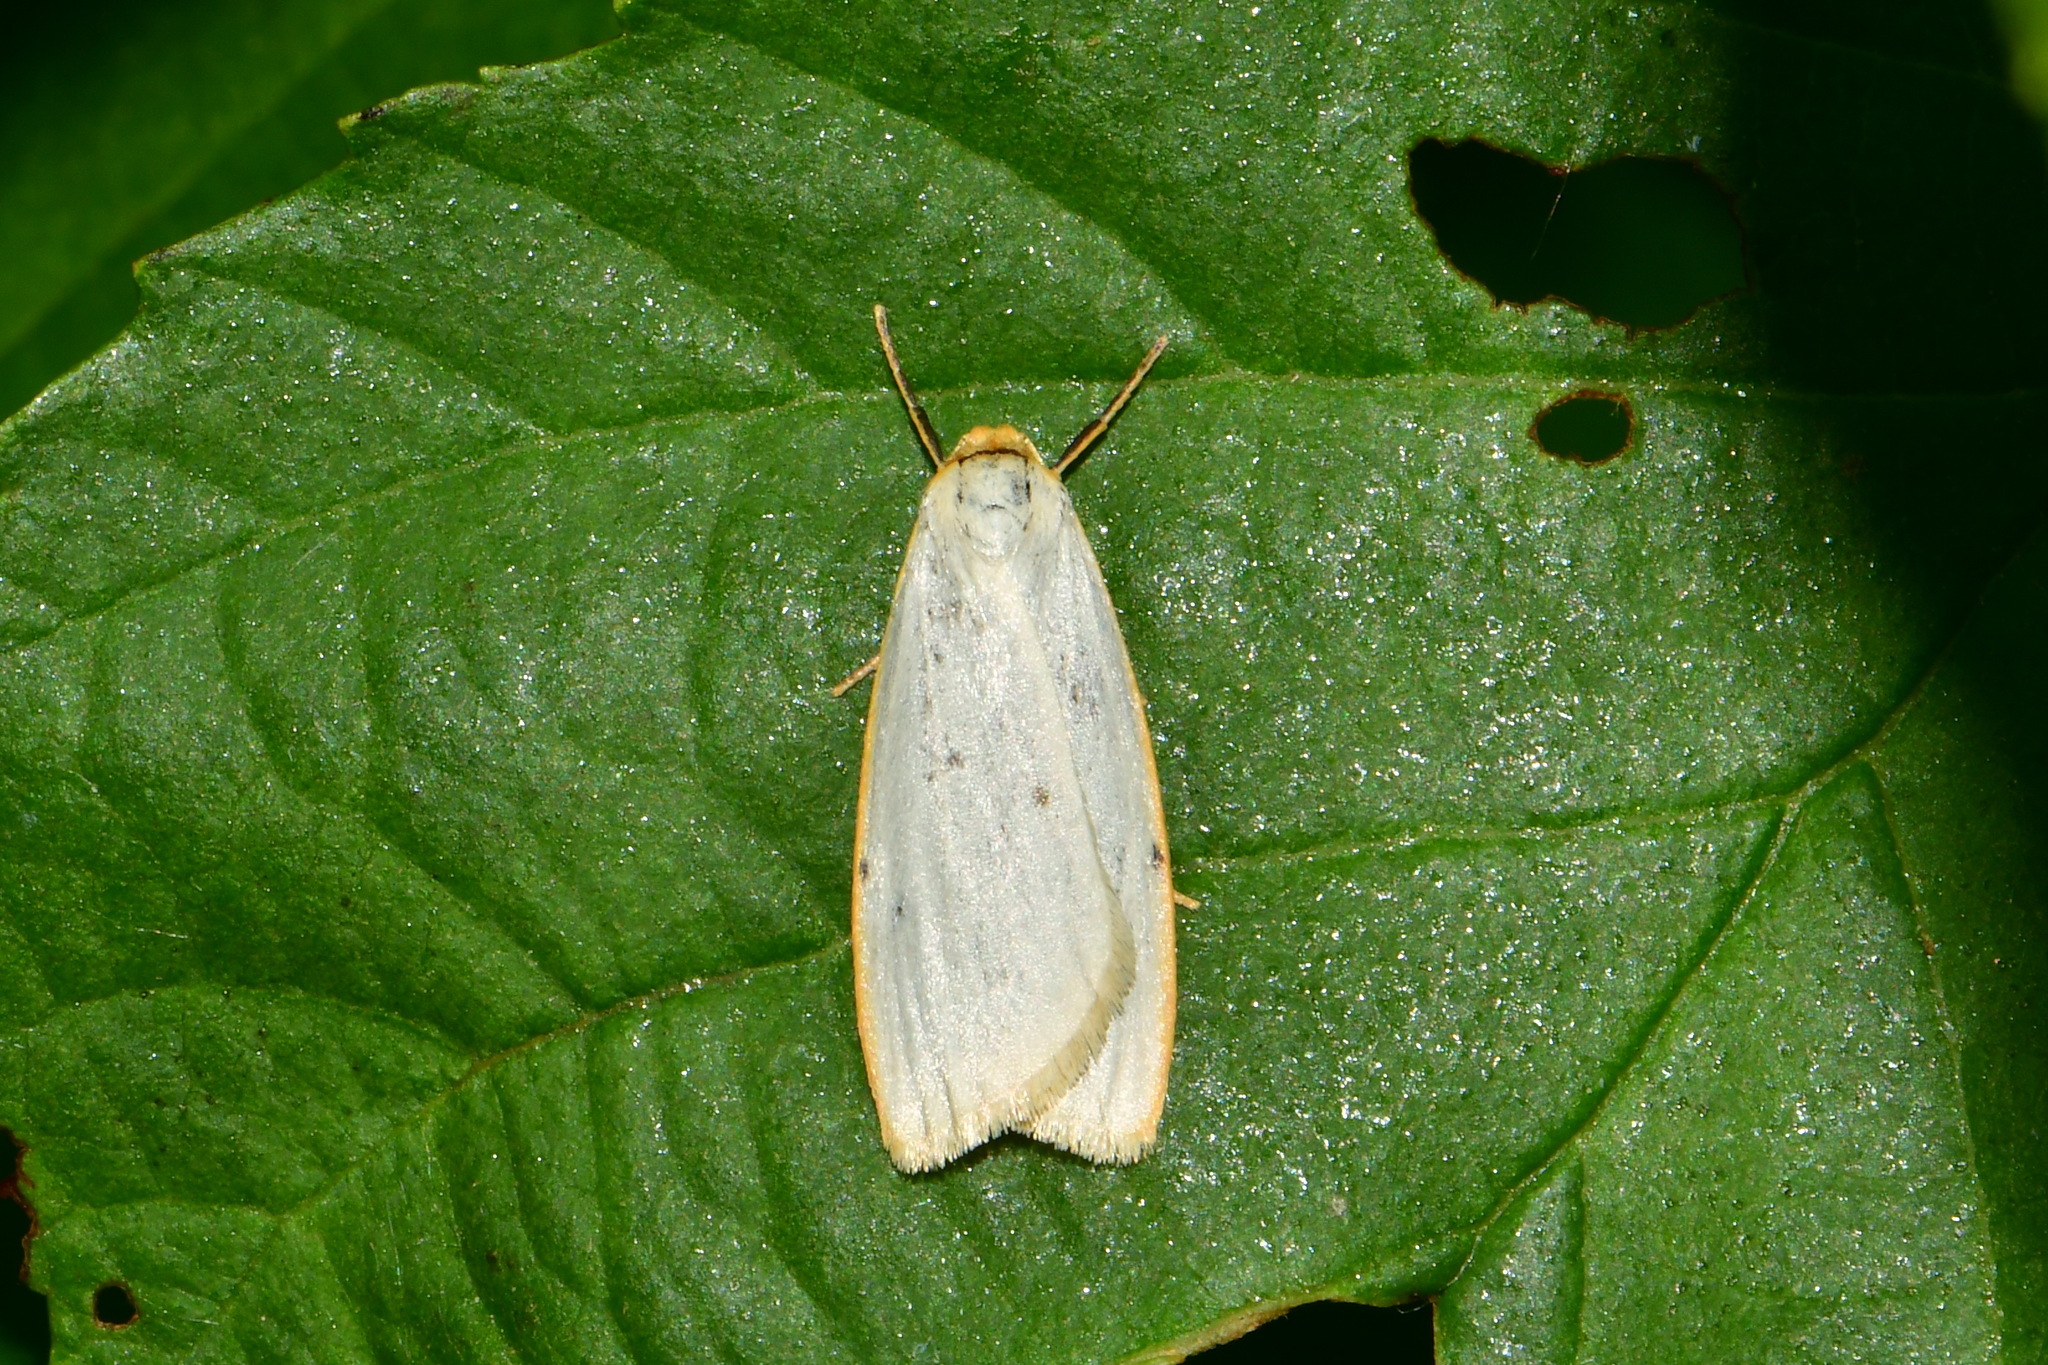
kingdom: Animalia
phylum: Arthropoda
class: Insecta
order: Lepidoptera
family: Erebidae
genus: Cybosia
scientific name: Cybosia mesomella
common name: Four-dotted footman
